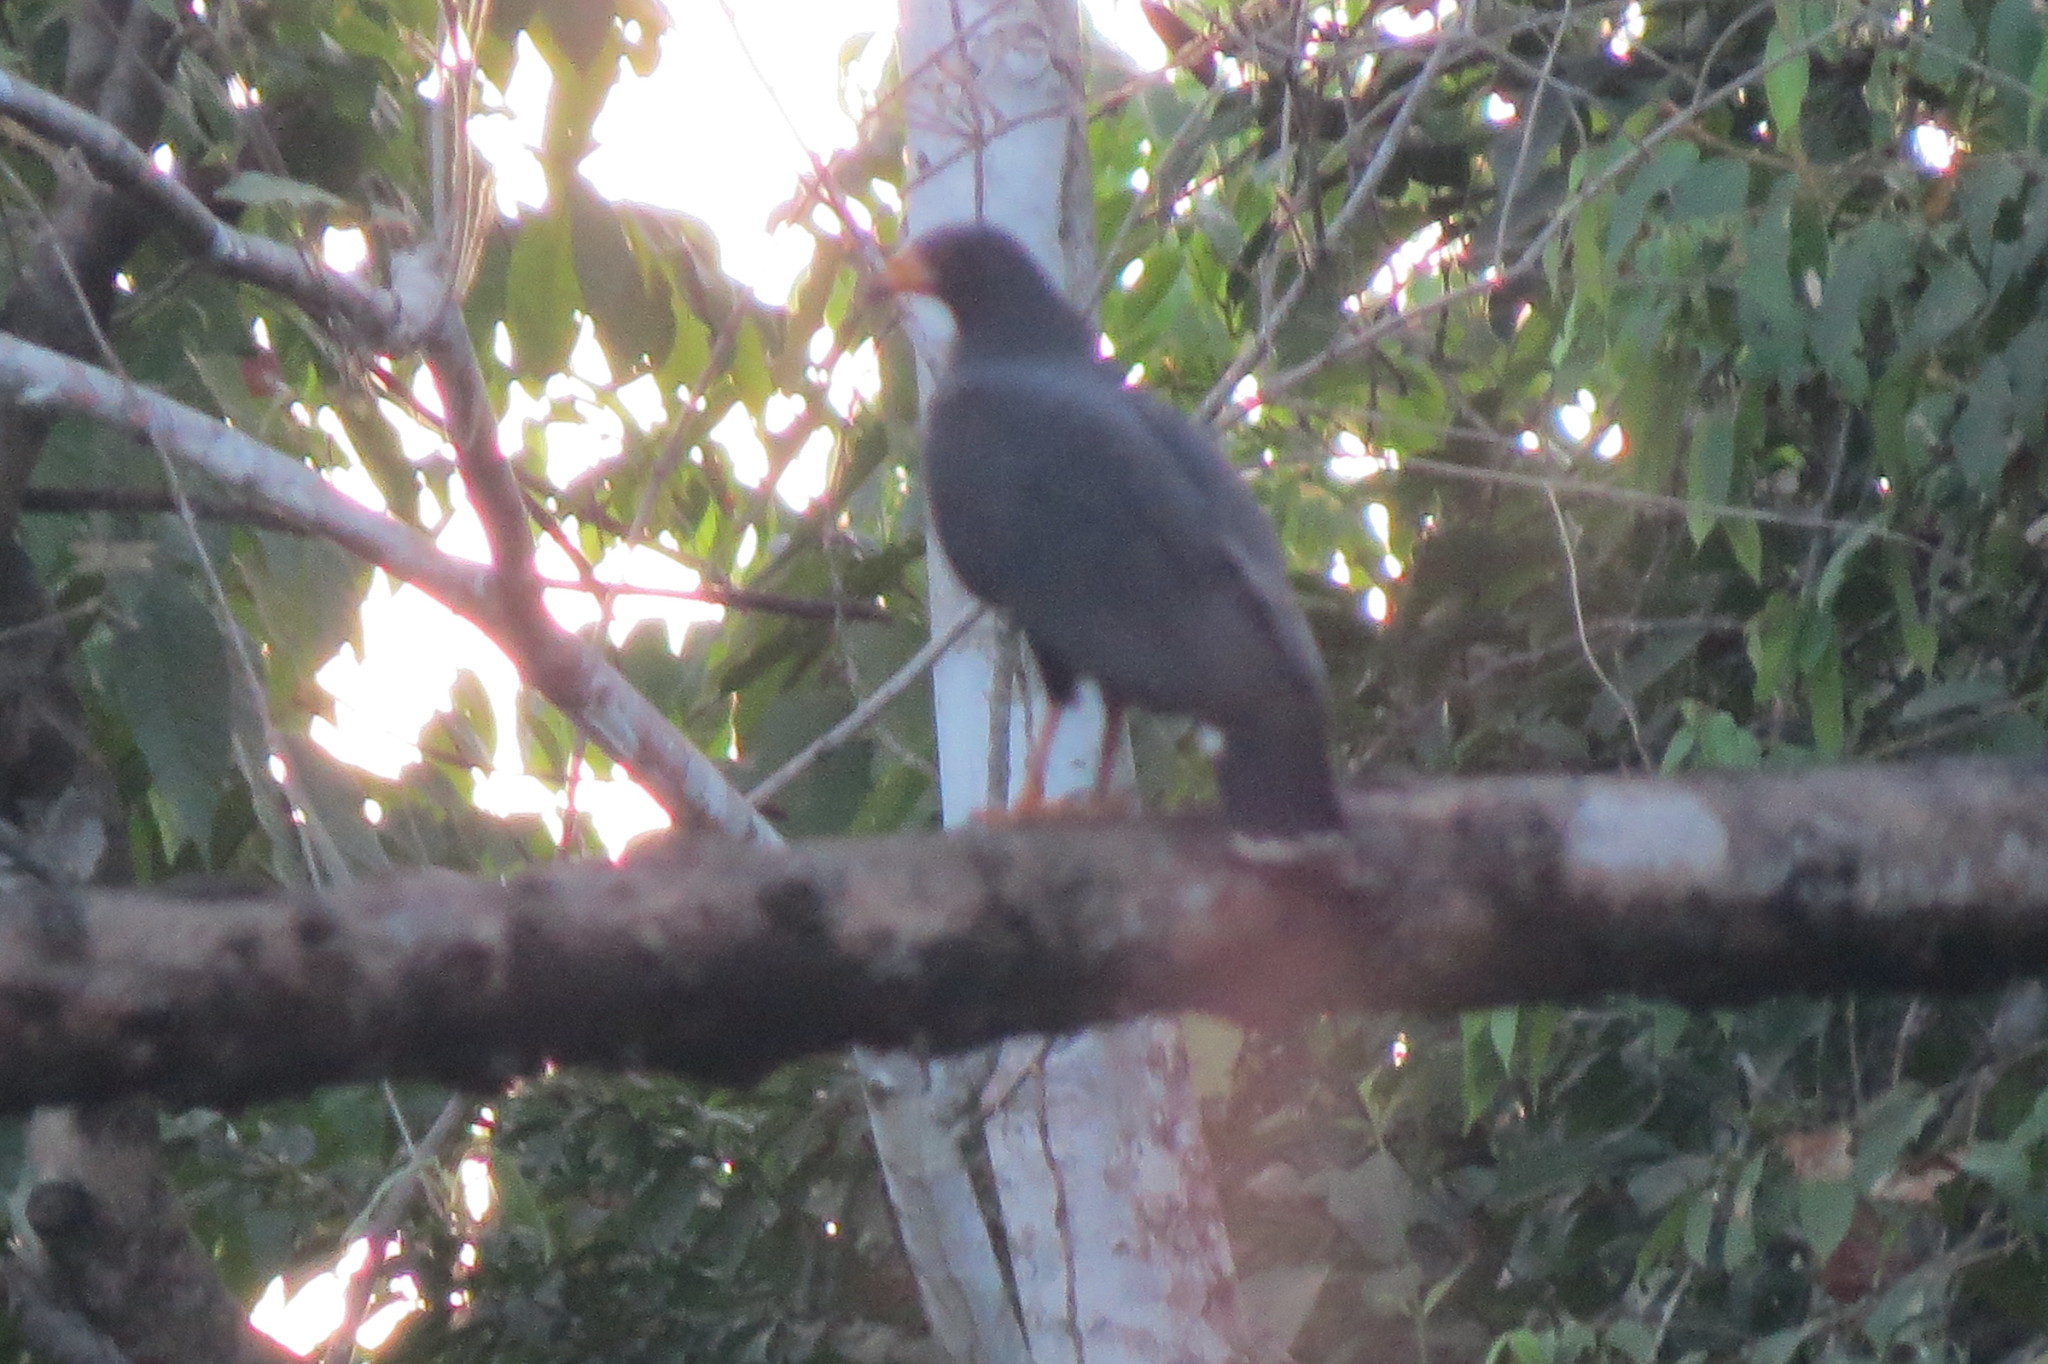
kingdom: Animalia
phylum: Chordata
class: Aves
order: Accipitriformes
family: Accipitridae
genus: Buteogallus
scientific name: Buteogallus anthracinus
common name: Common black hawk
